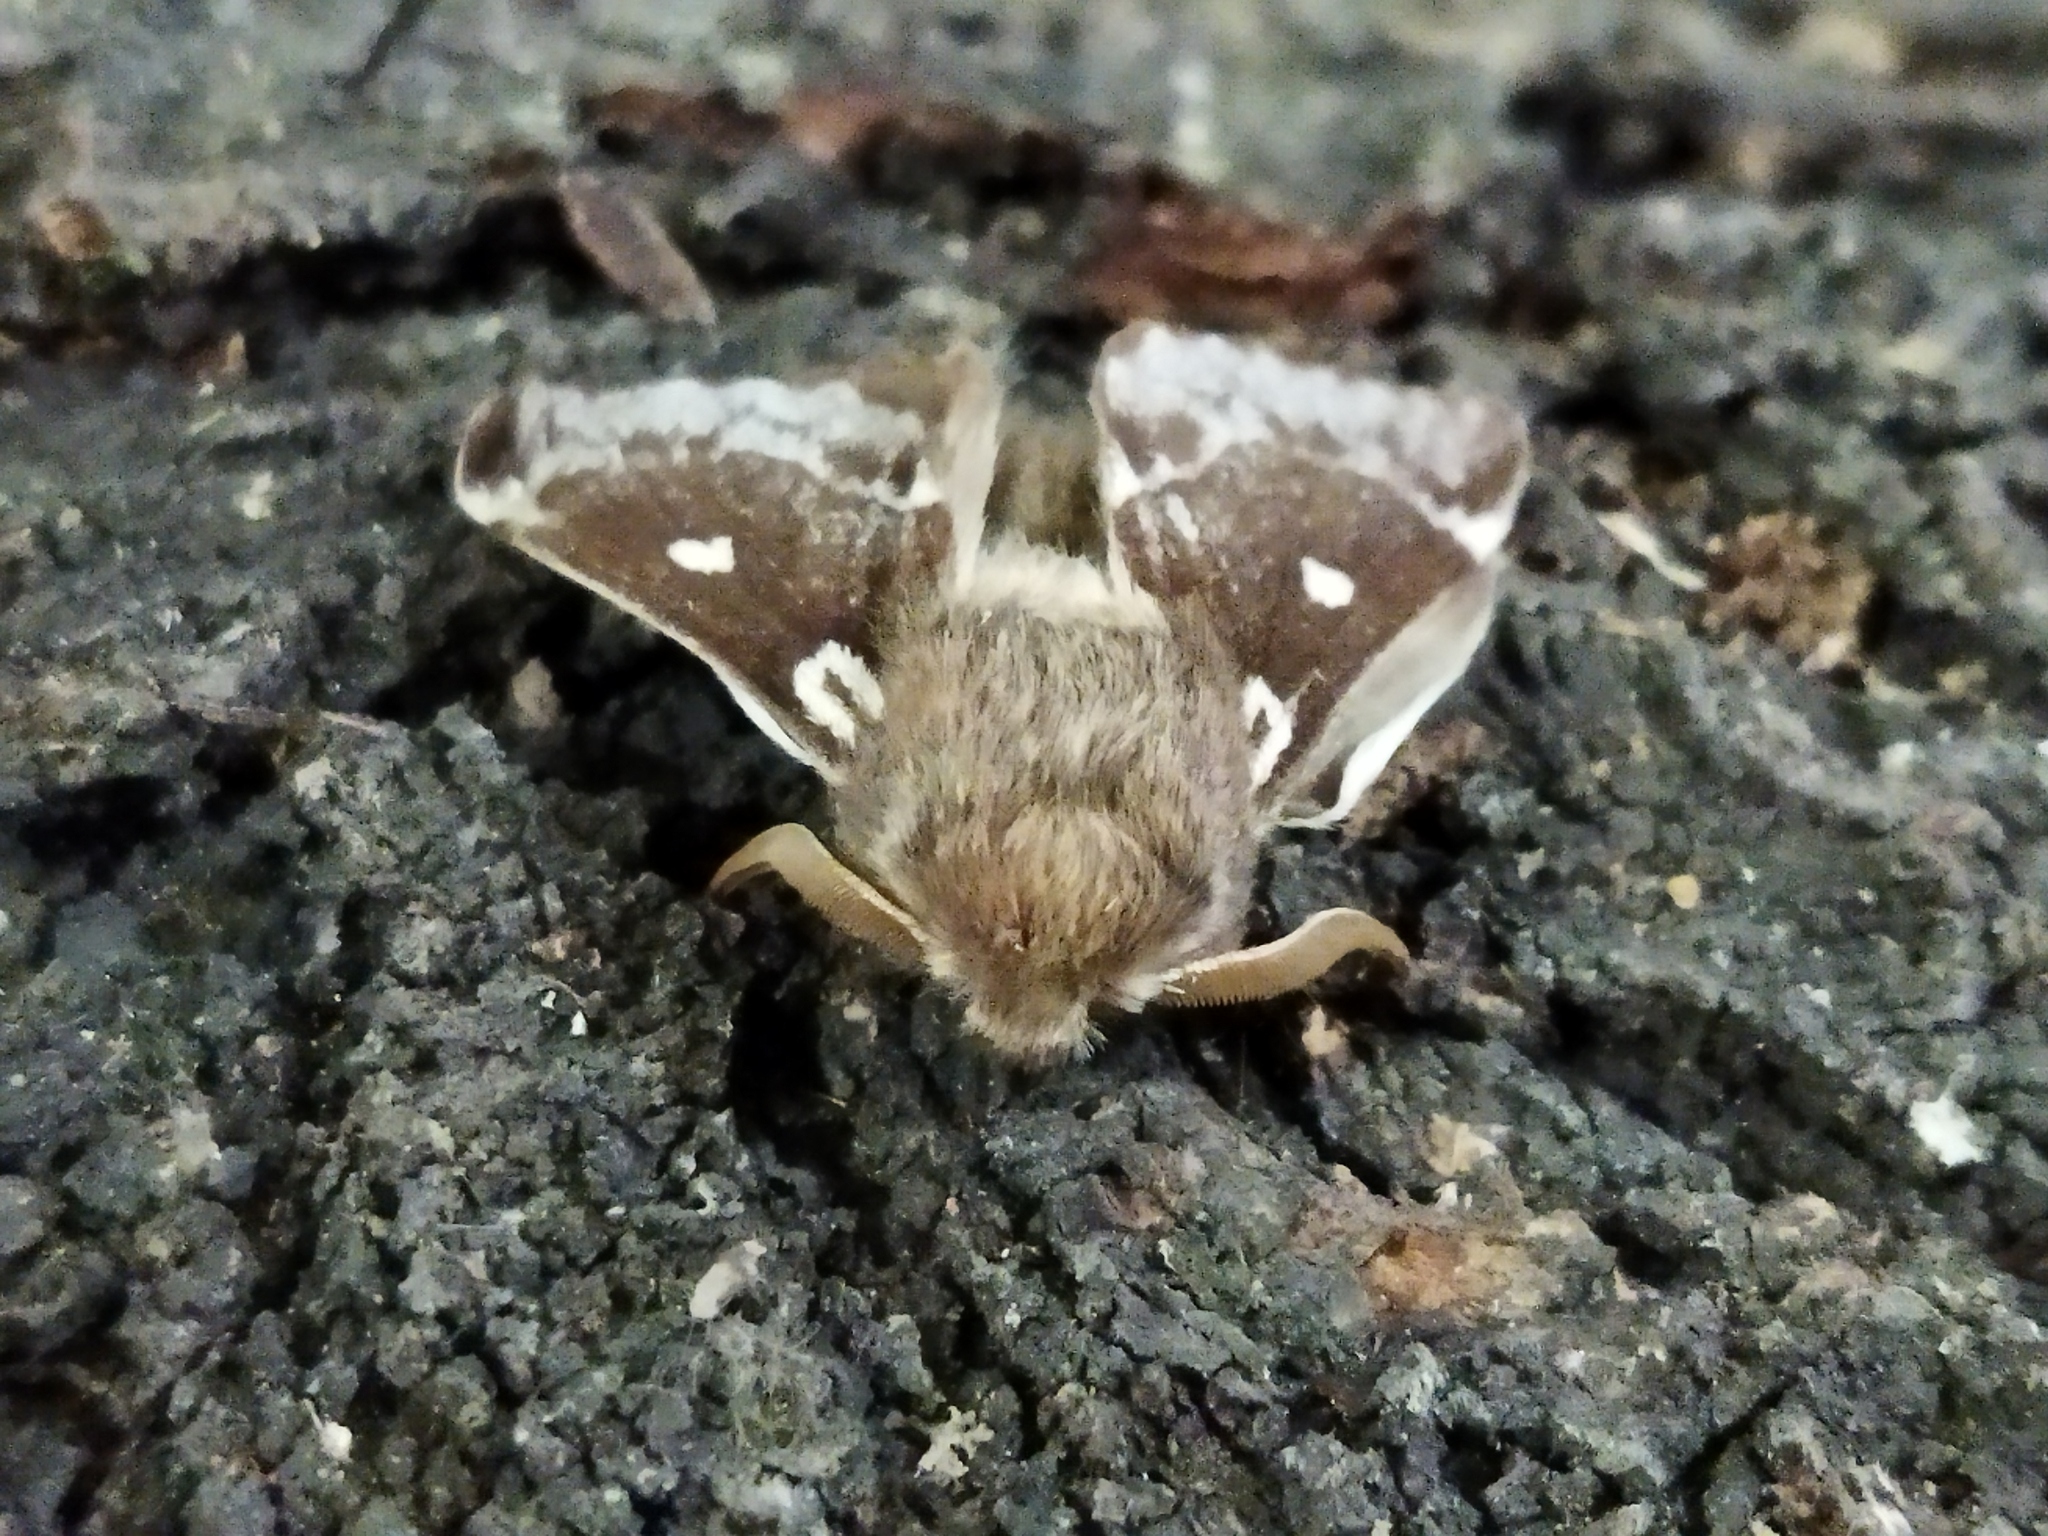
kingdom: Animalia
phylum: Arthropoda
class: Insecta
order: Lepidoptera
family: Lasiocampidae
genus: Eriogaster
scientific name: Eriogaster lanestris
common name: Small eggar
